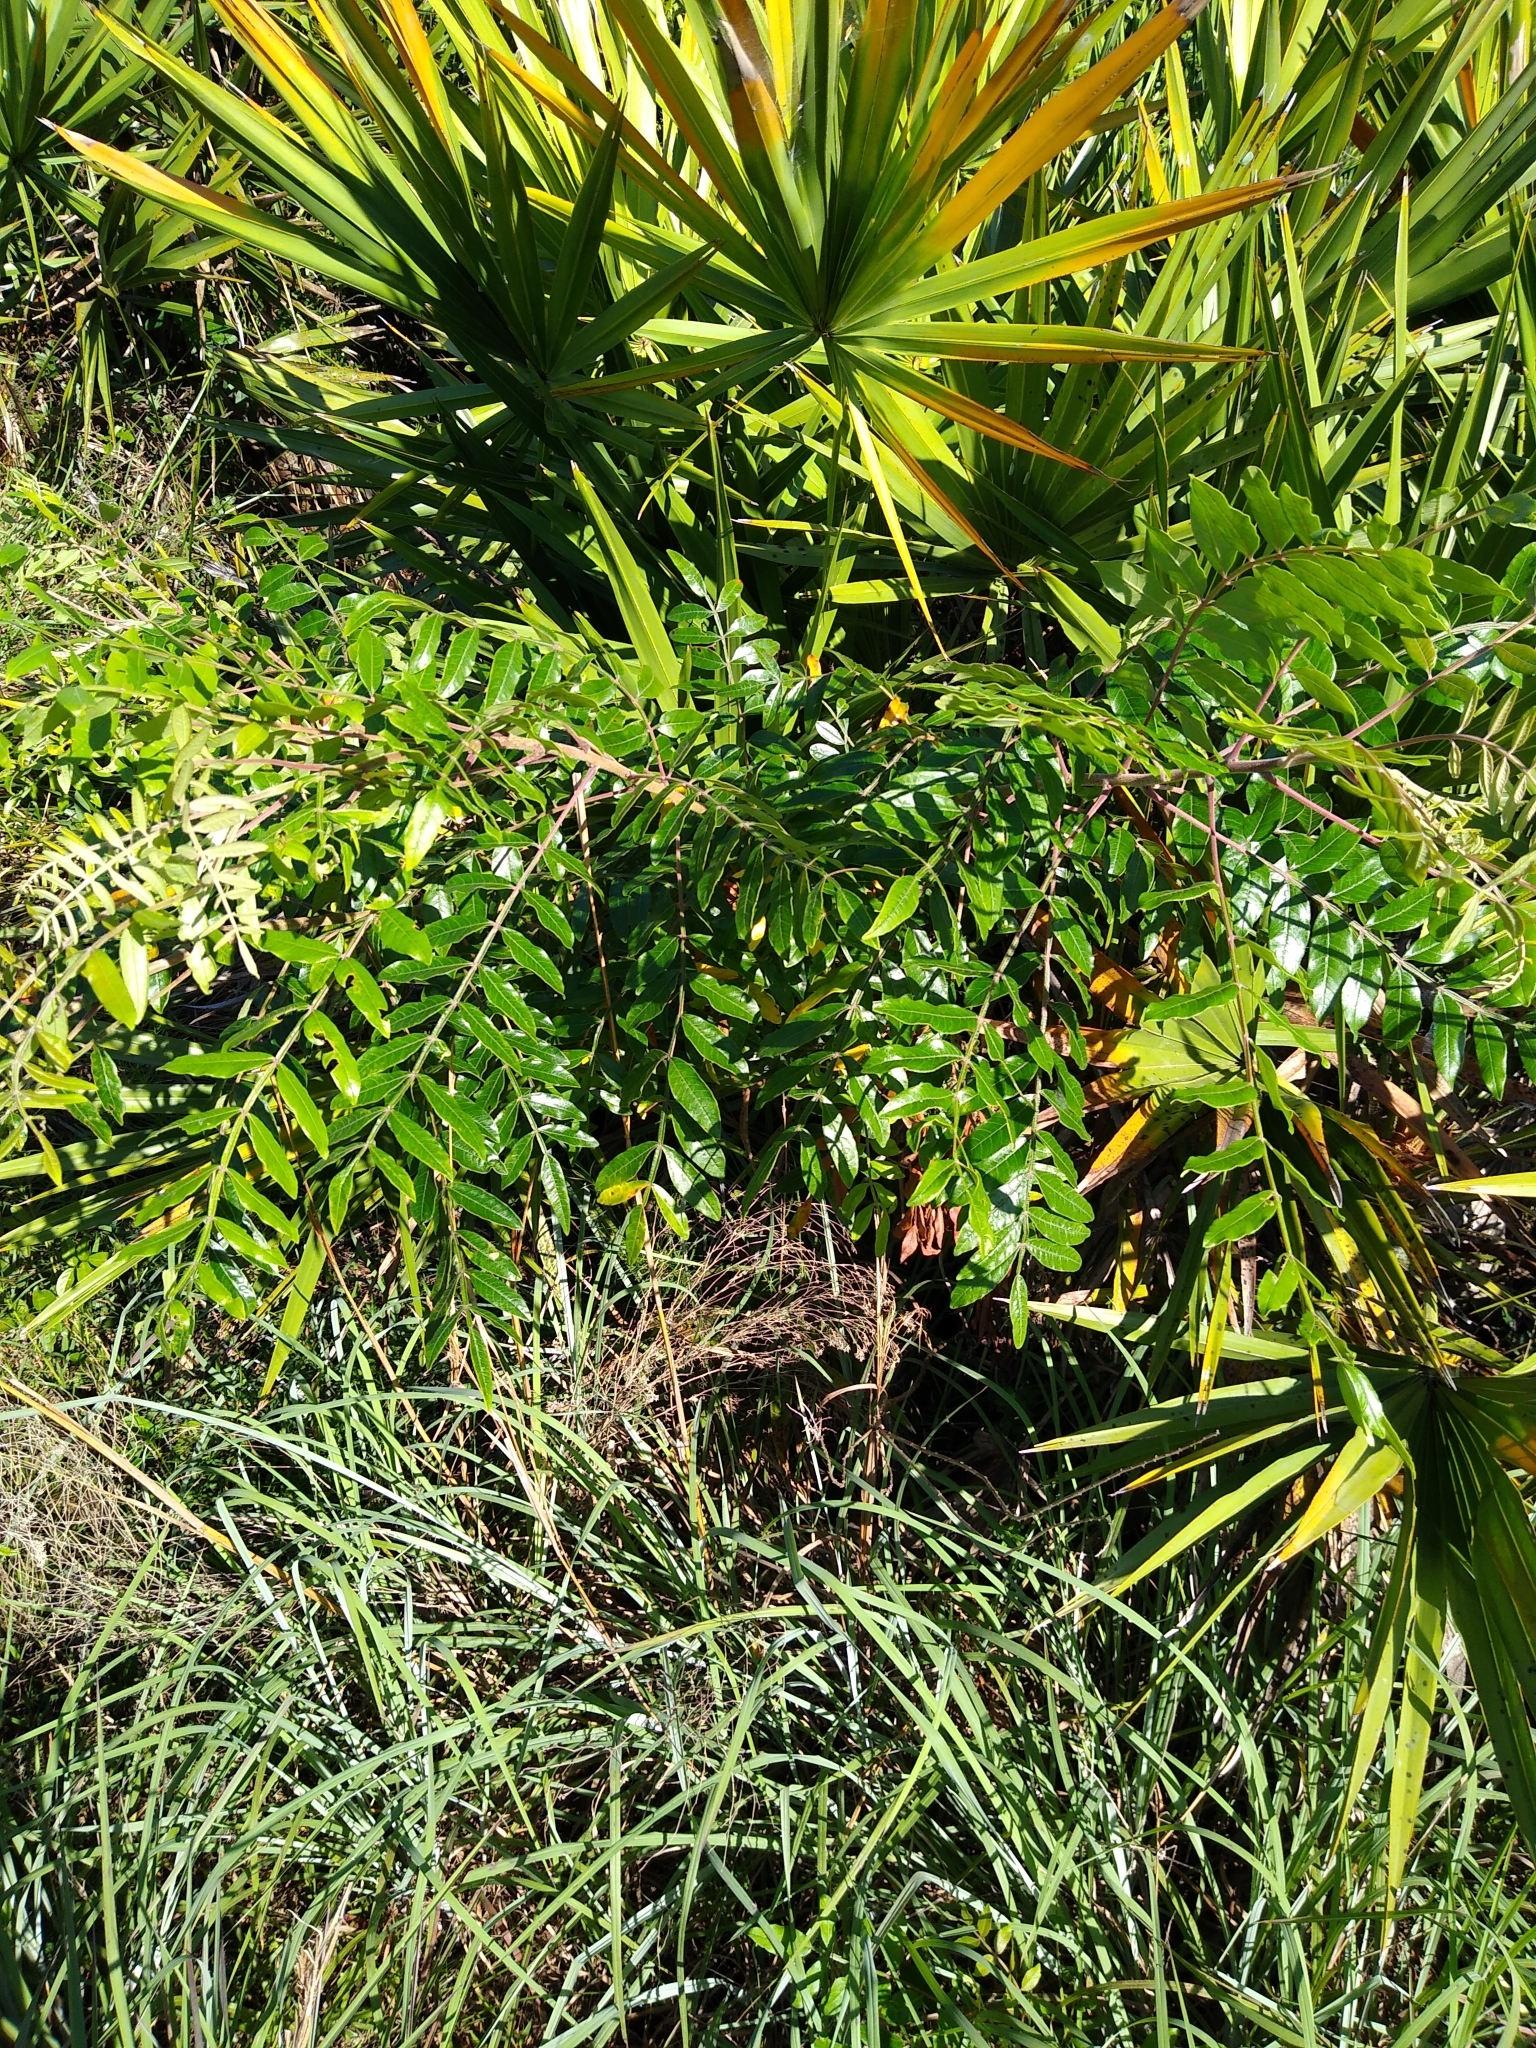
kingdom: Plantae
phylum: Tracheophyta
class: Magnoliopsida
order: Sapindales
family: Anacardiaceae
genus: Rhus
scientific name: Rhus copallina
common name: Shining sumac
